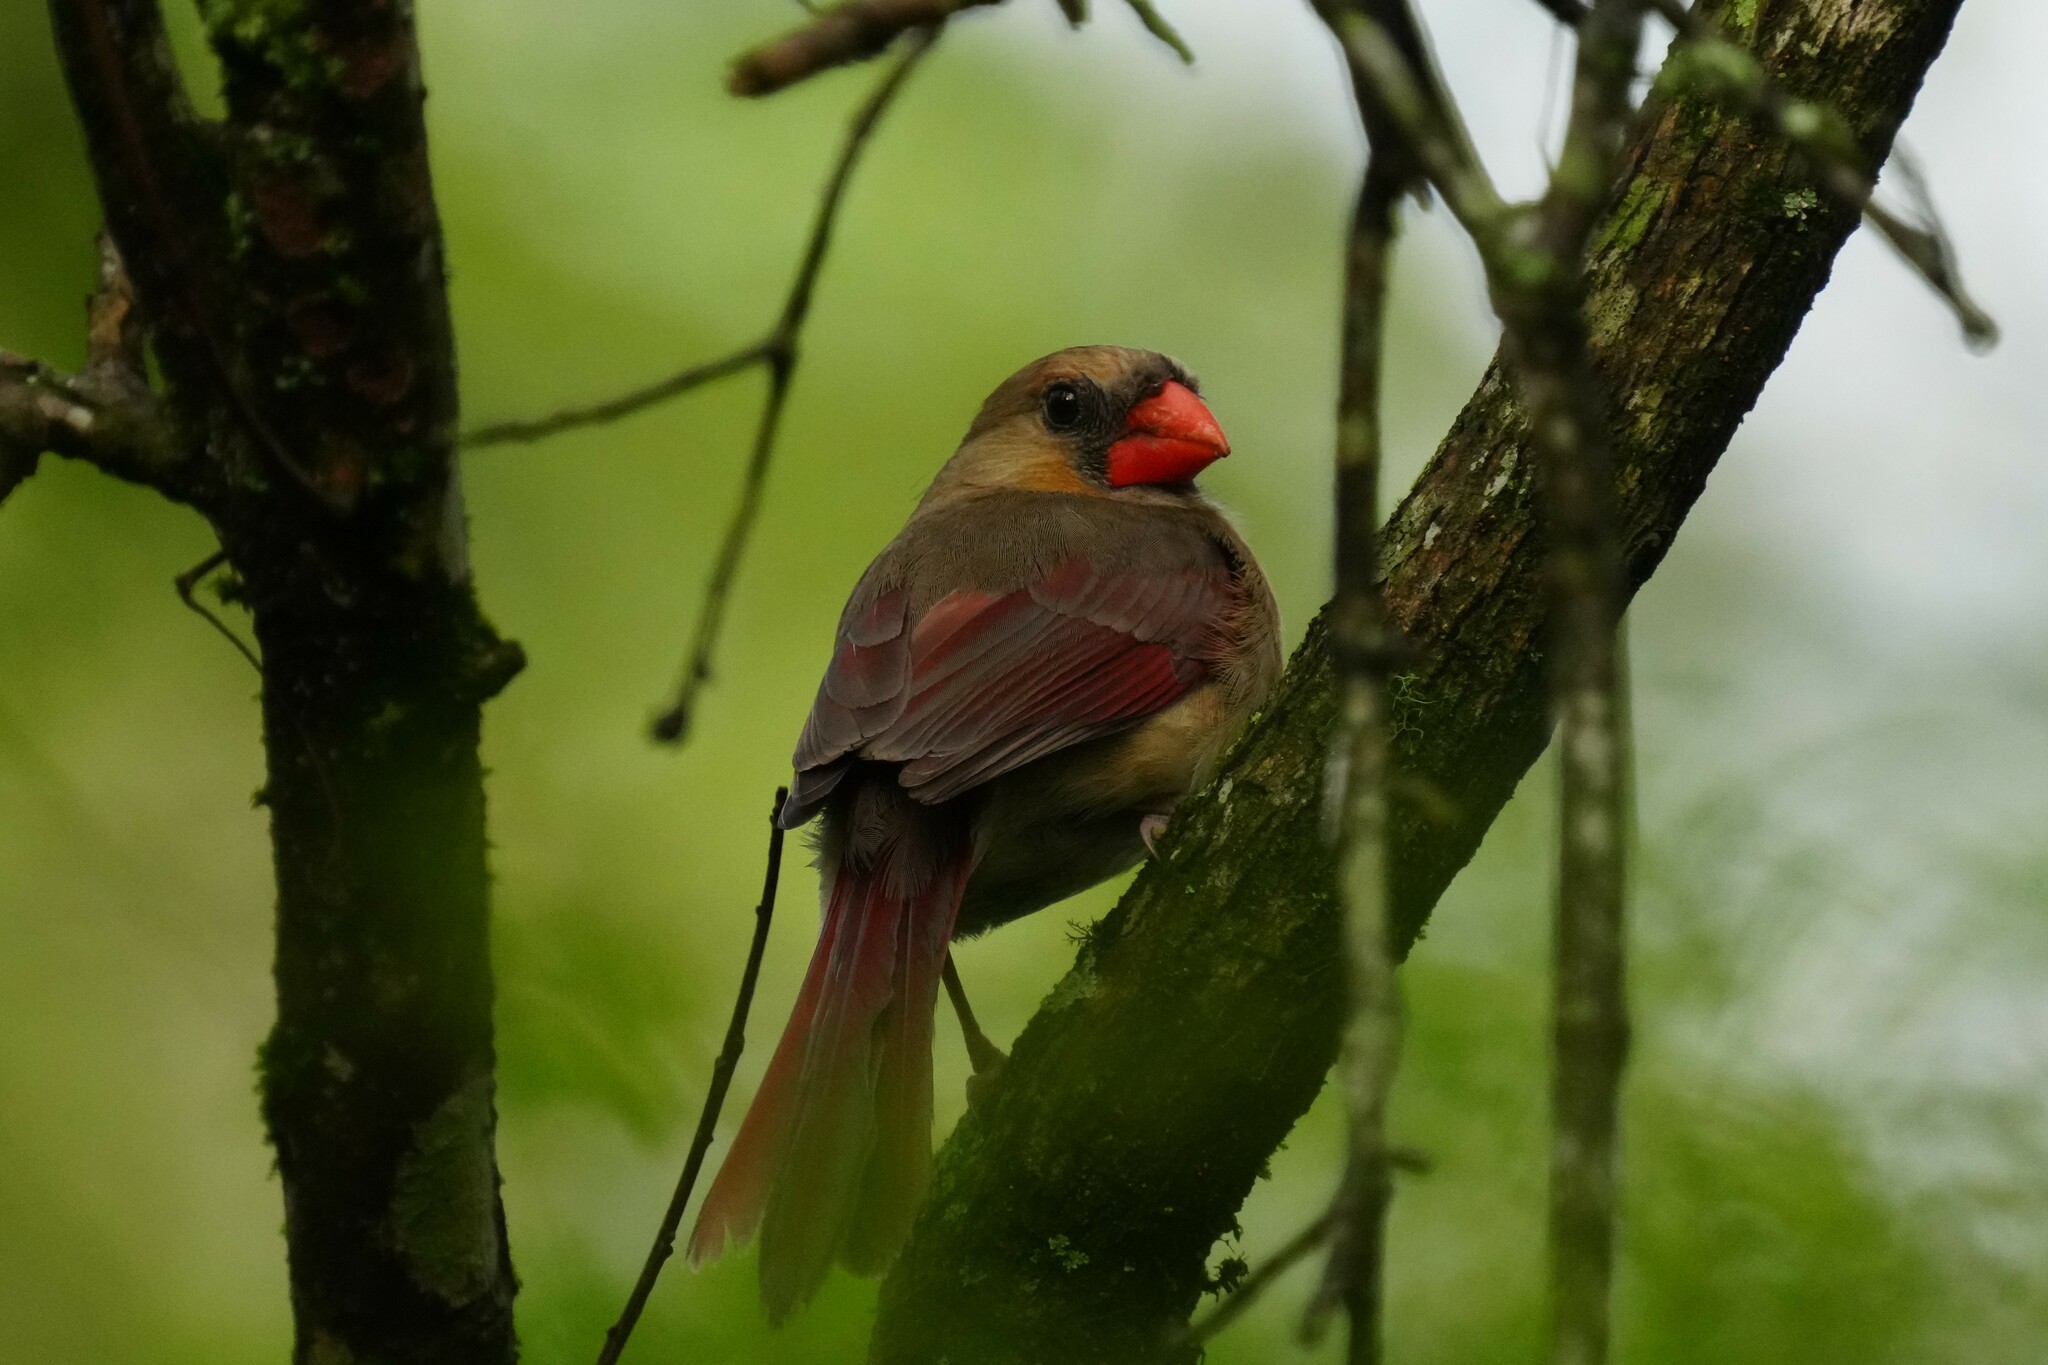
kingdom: Animalia
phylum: Chordata
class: Aves
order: Passeriformes
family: Cardinalidae
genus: Cardinalis
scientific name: Cardinalis cardinalis
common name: Northern cardinal
